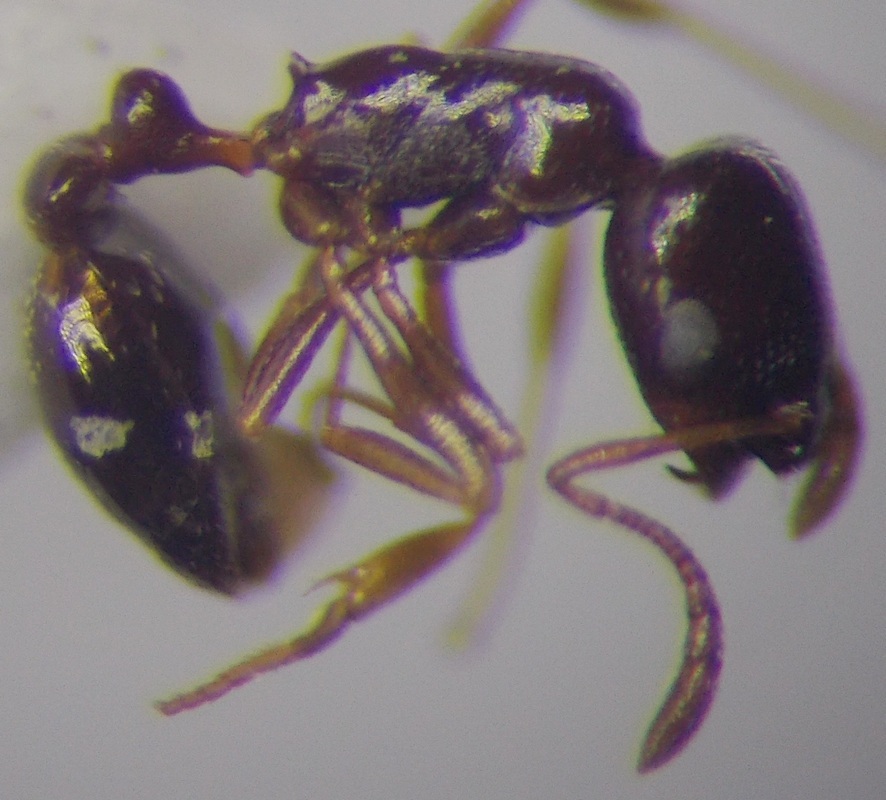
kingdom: Animalia
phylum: Arthropoda
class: Insecta
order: Hymenoptera
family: Formicidae
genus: Cardiocondyla
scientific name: Cardiocondyla ulianini
